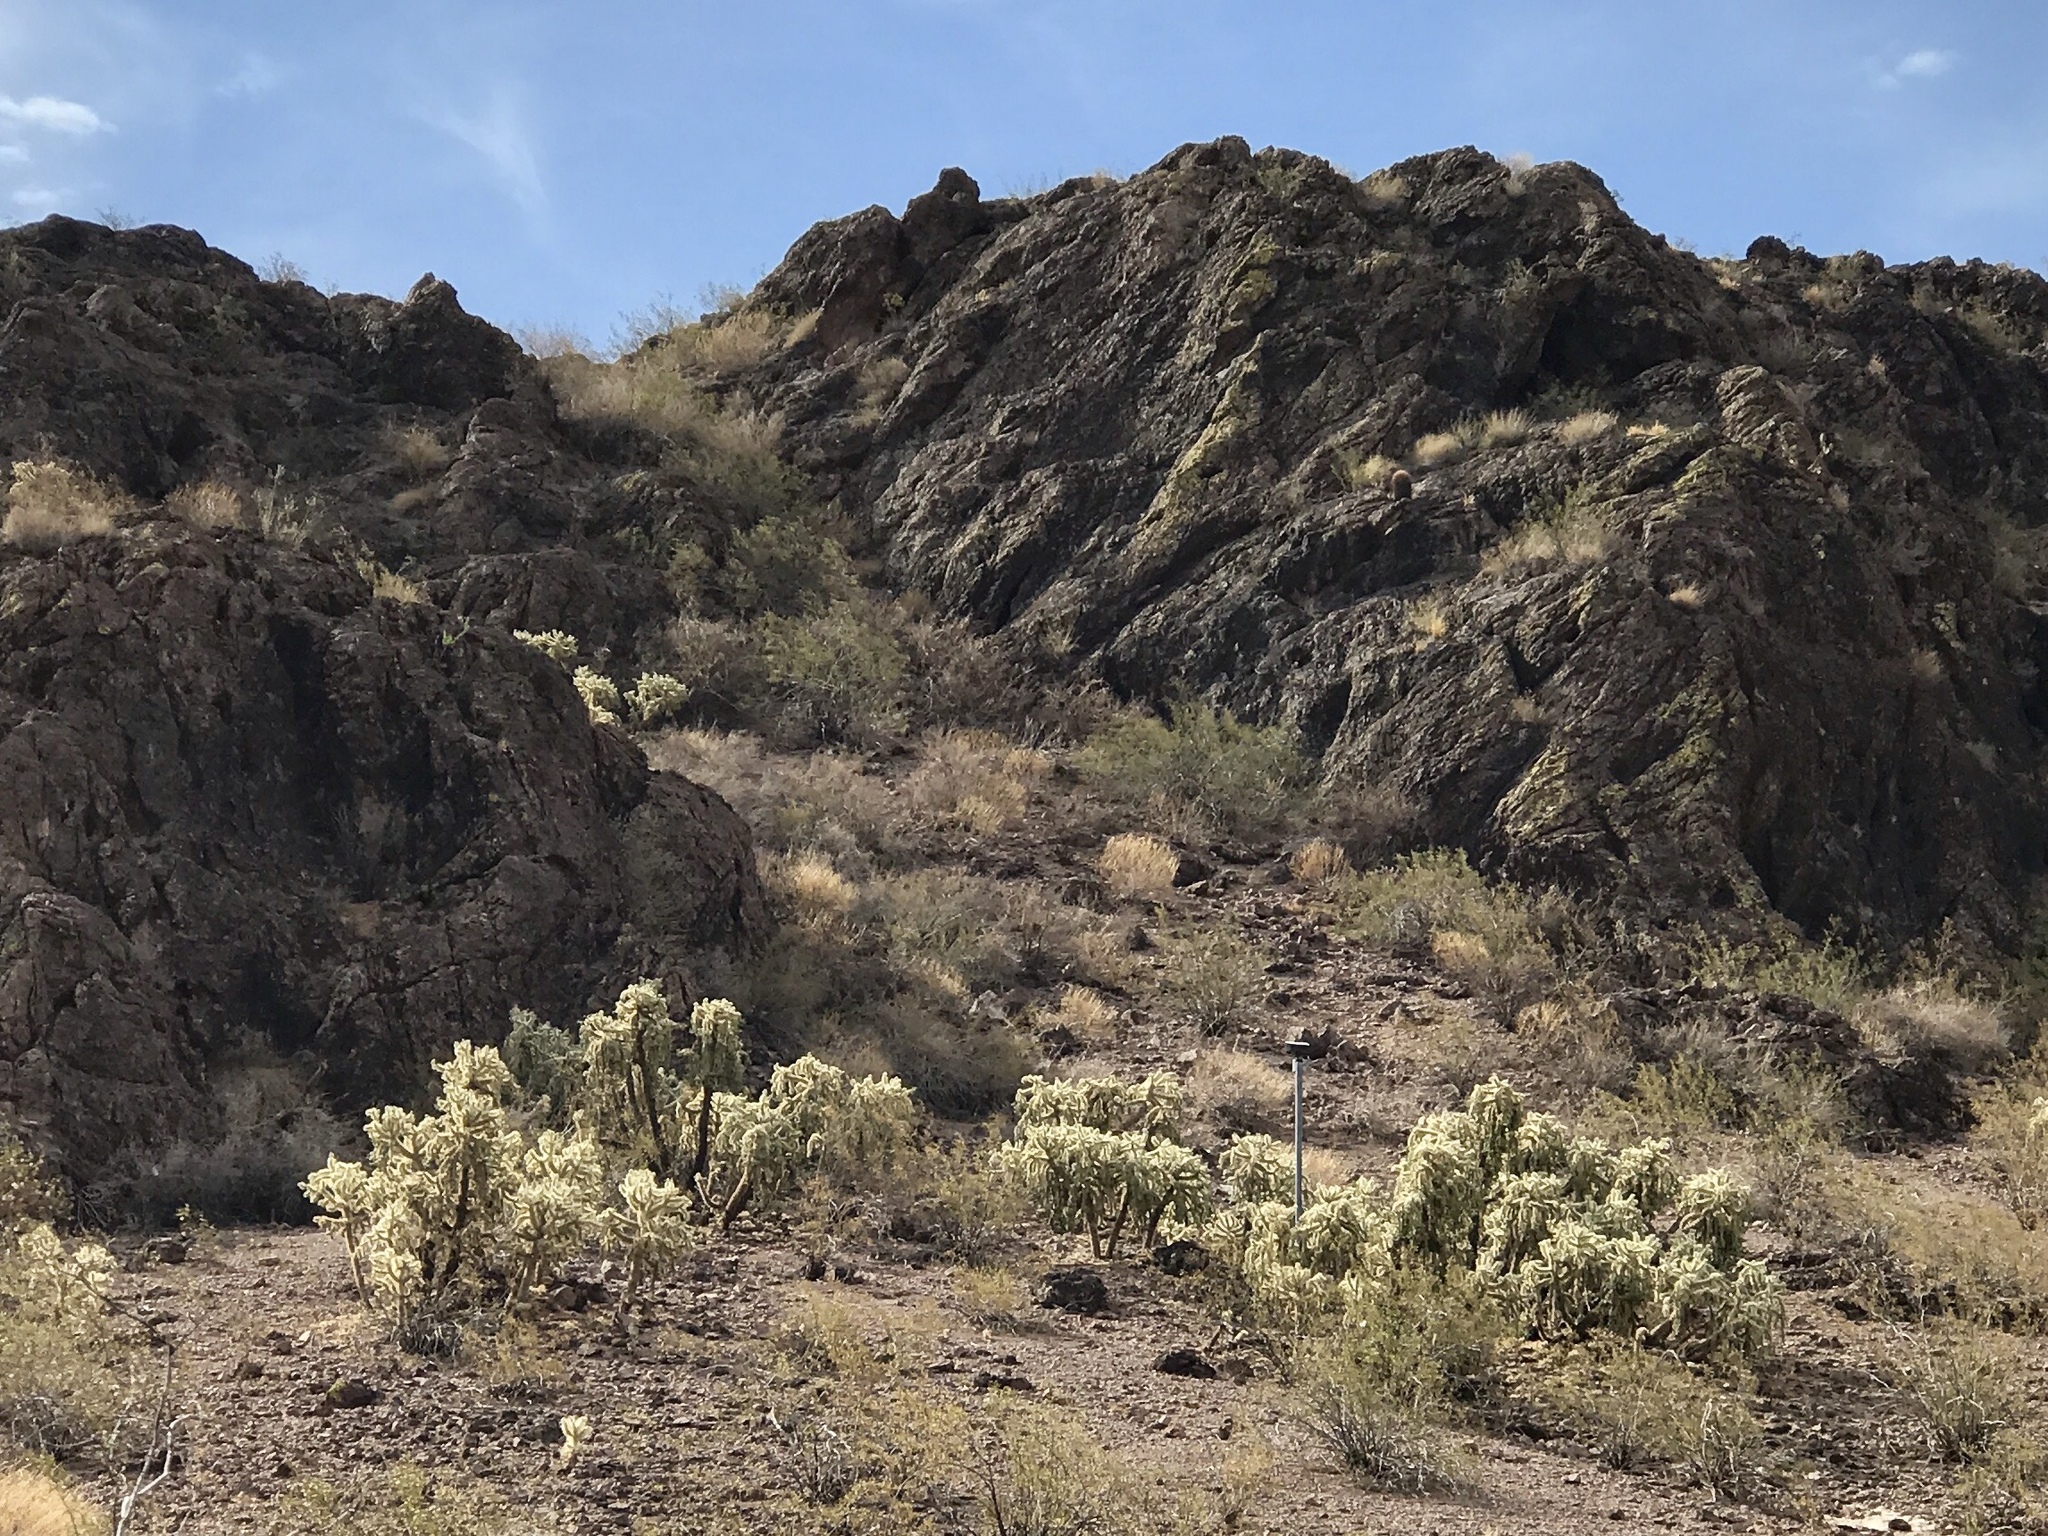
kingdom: Plantae
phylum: Tracheophyta
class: Magnoliopsida
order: Caryophyllales
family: Cactaceae
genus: Cylindropuntia
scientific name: Cylindropuntia fulgida
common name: Jumping cholla
